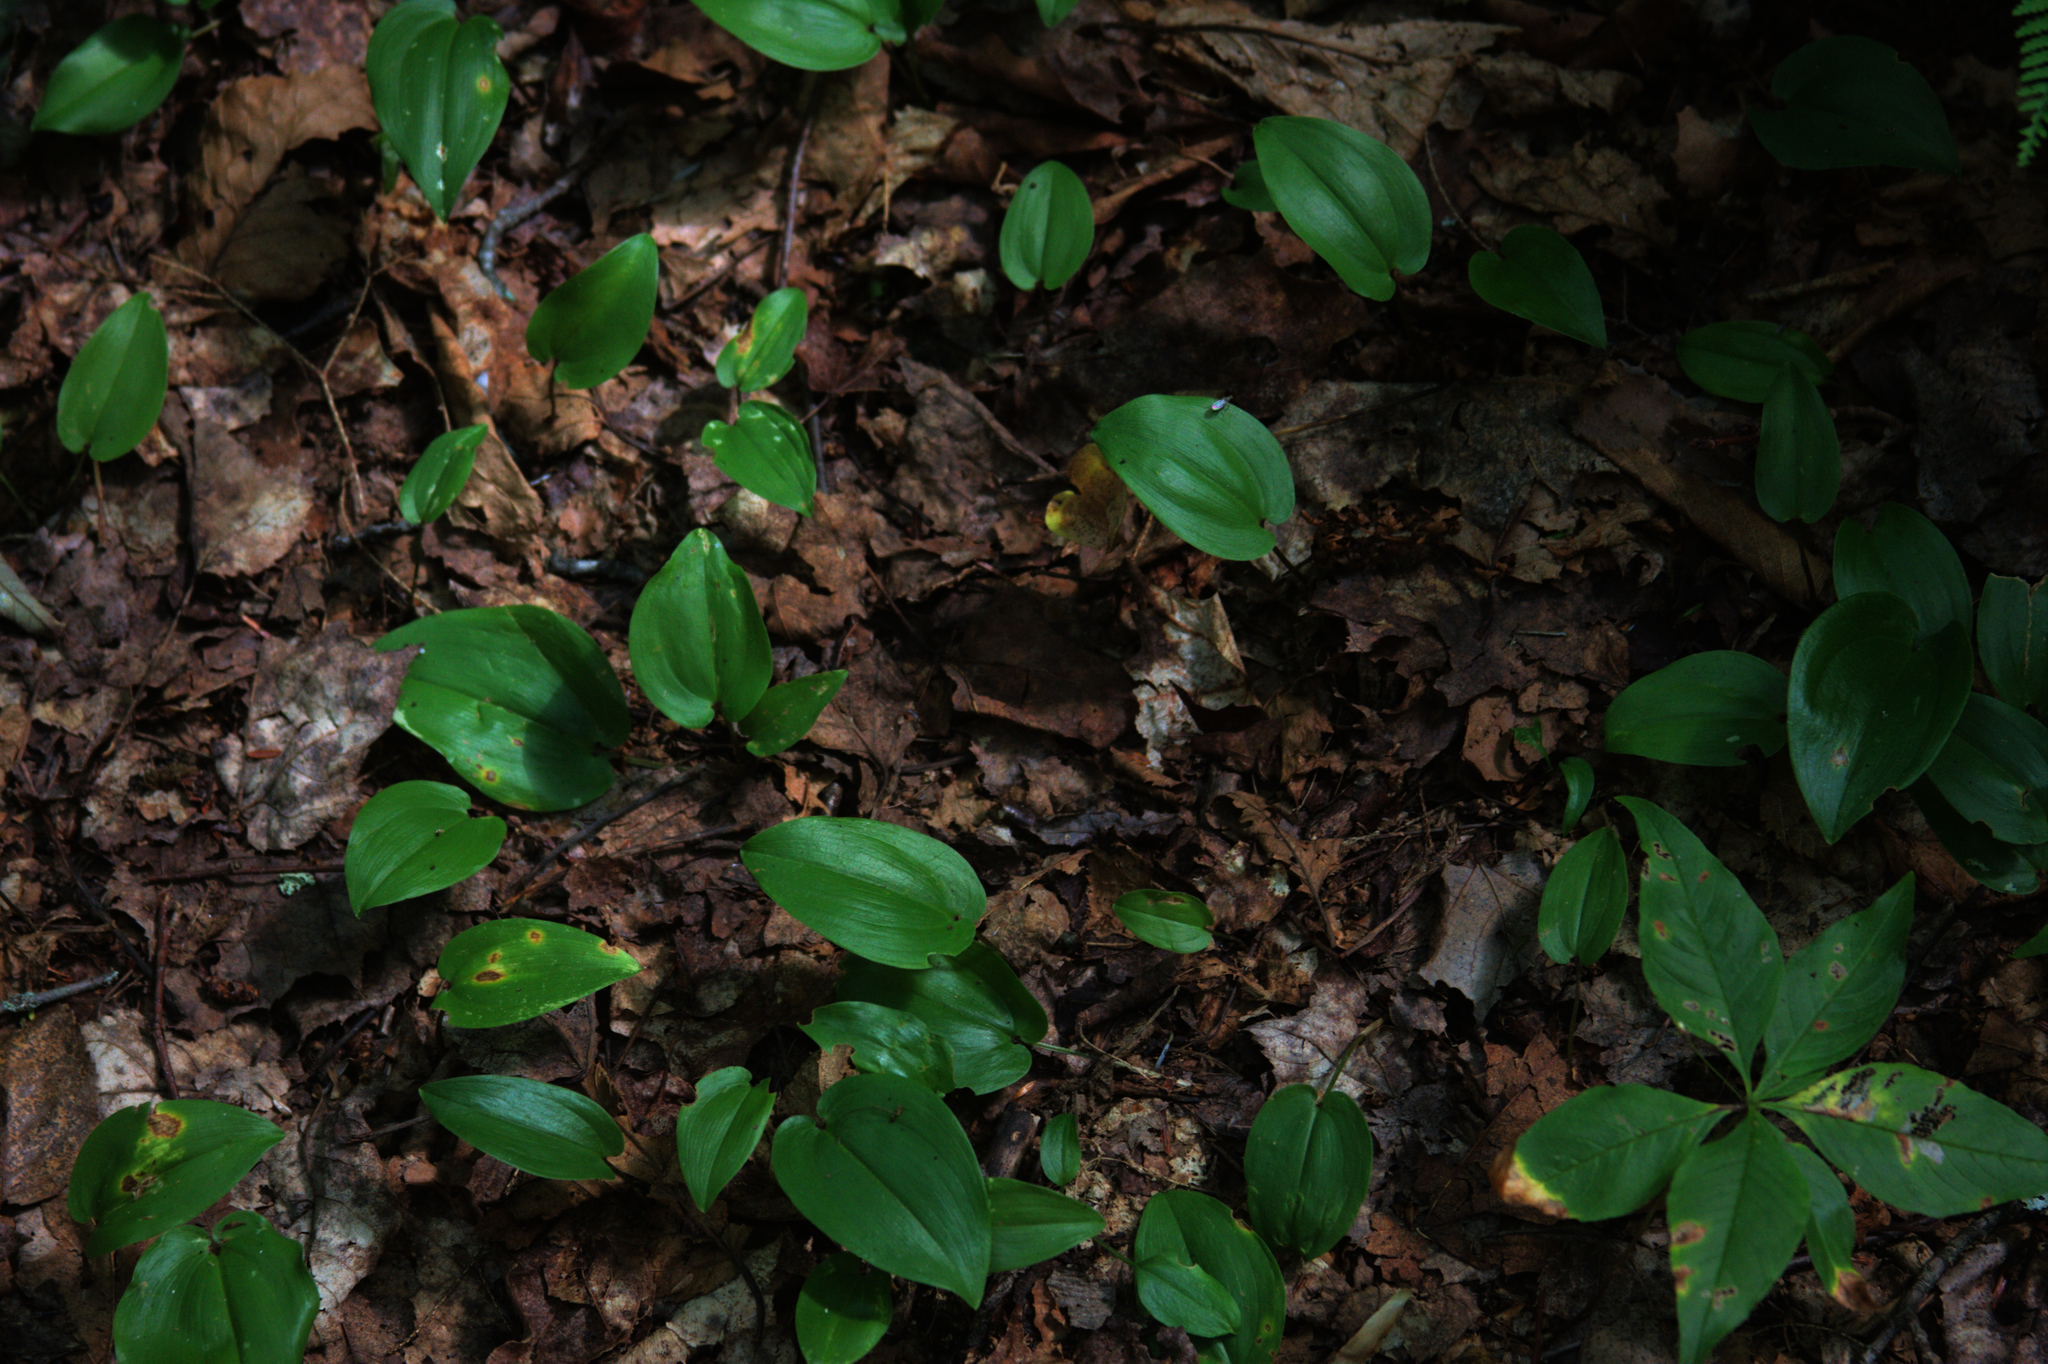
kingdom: Plantae
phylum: Tracheophyta
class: Magnoliopsida
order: Ericales
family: Primulaceae
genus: Lysimachia
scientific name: Lysimachia borealis
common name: American starflower
